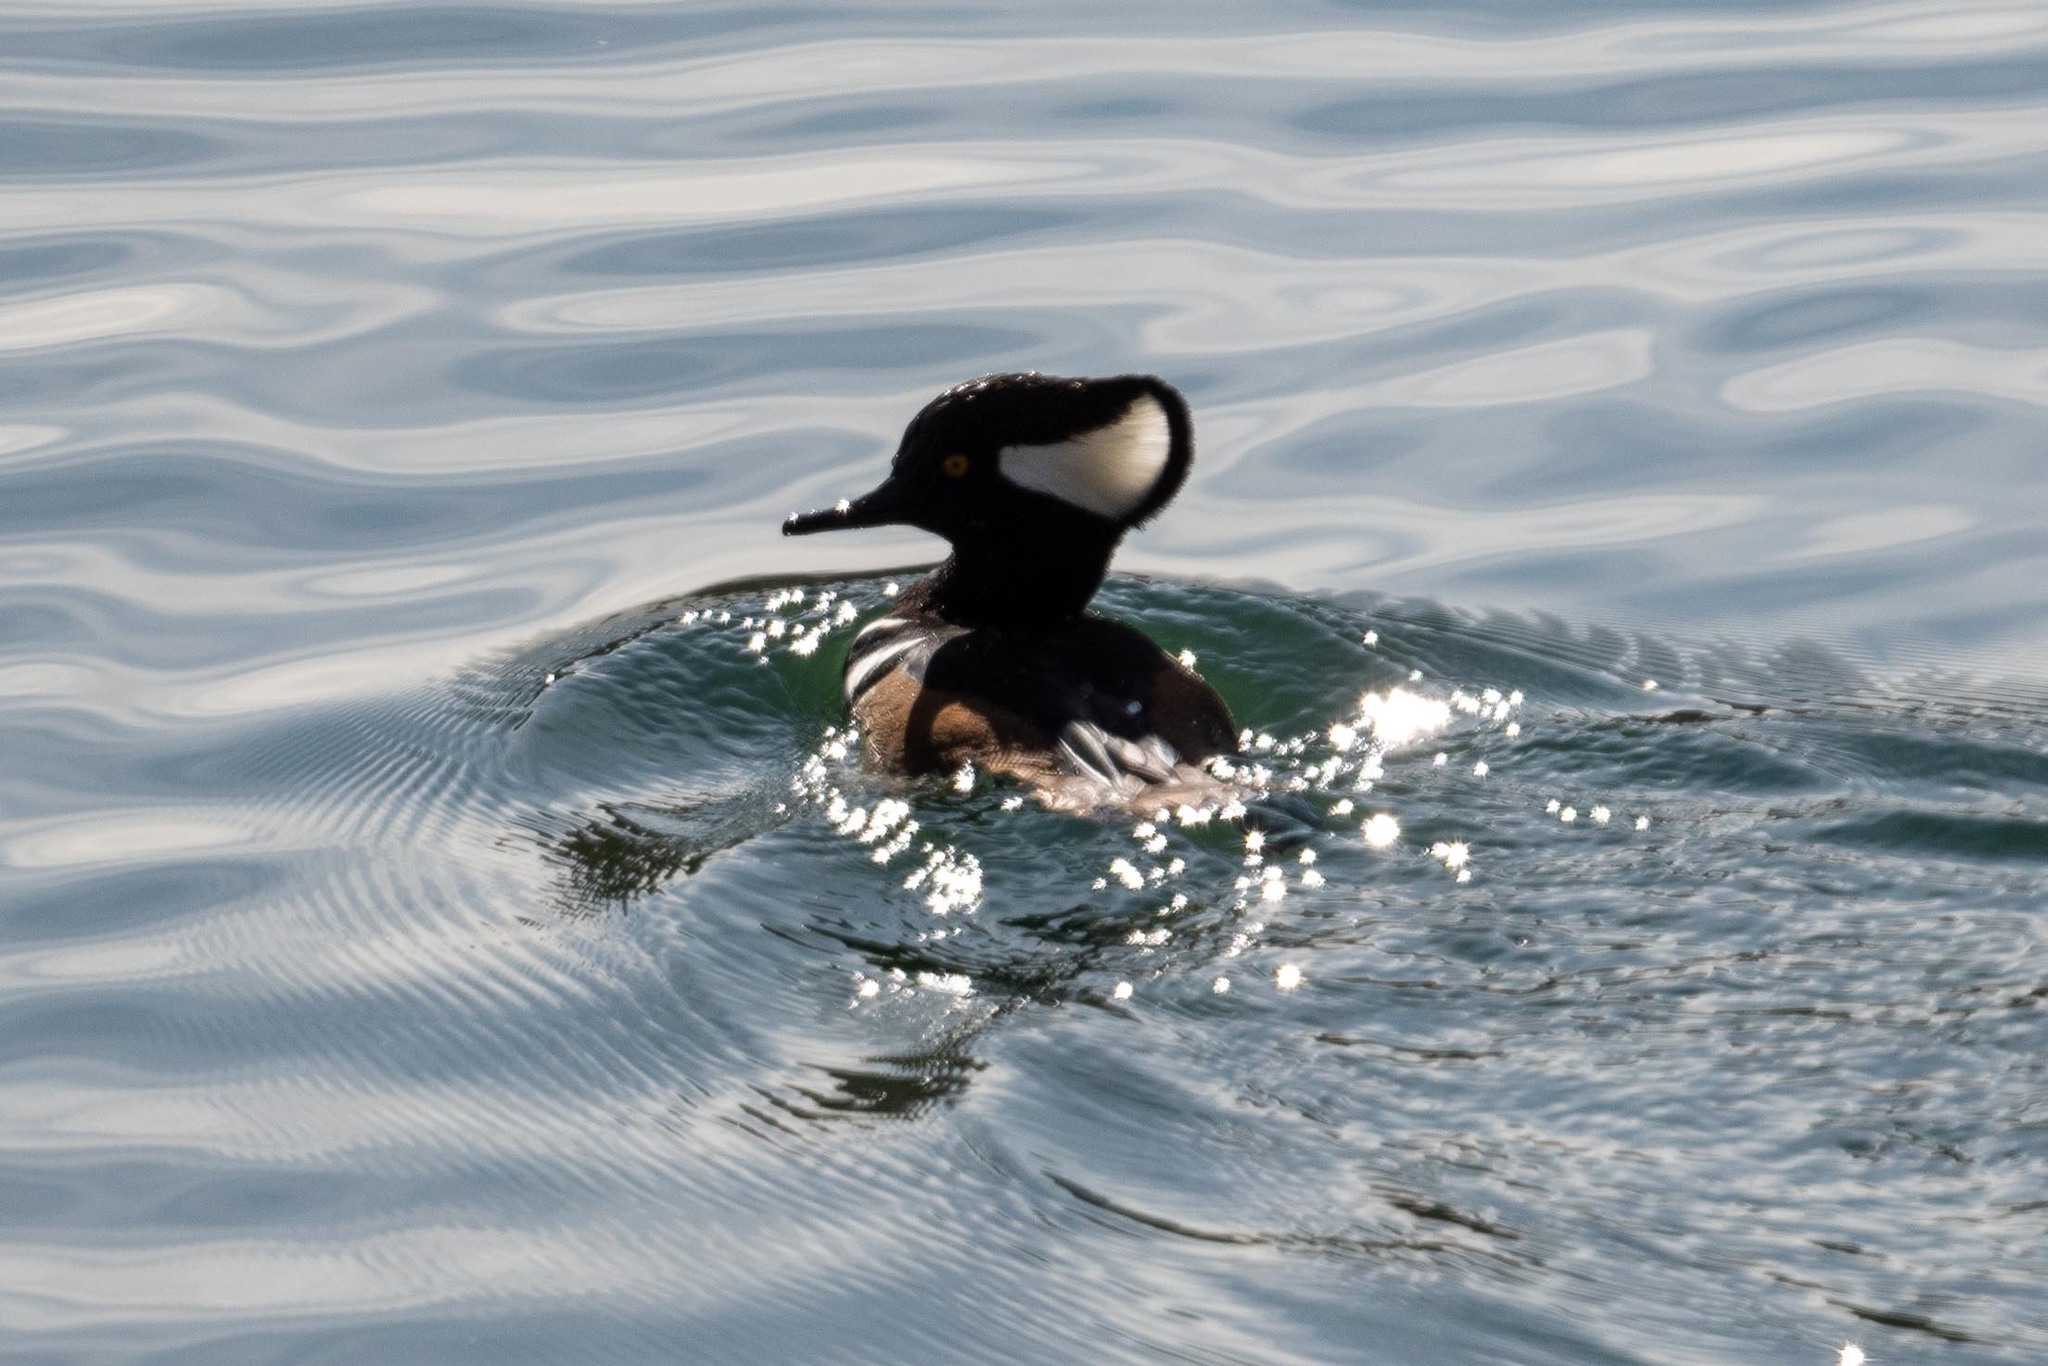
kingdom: Animalia
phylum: Chordata
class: Aves
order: Anseriformes
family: Anatidae
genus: Lophodytes
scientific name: Lophodytes cucullatus
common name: Hooded merganser
